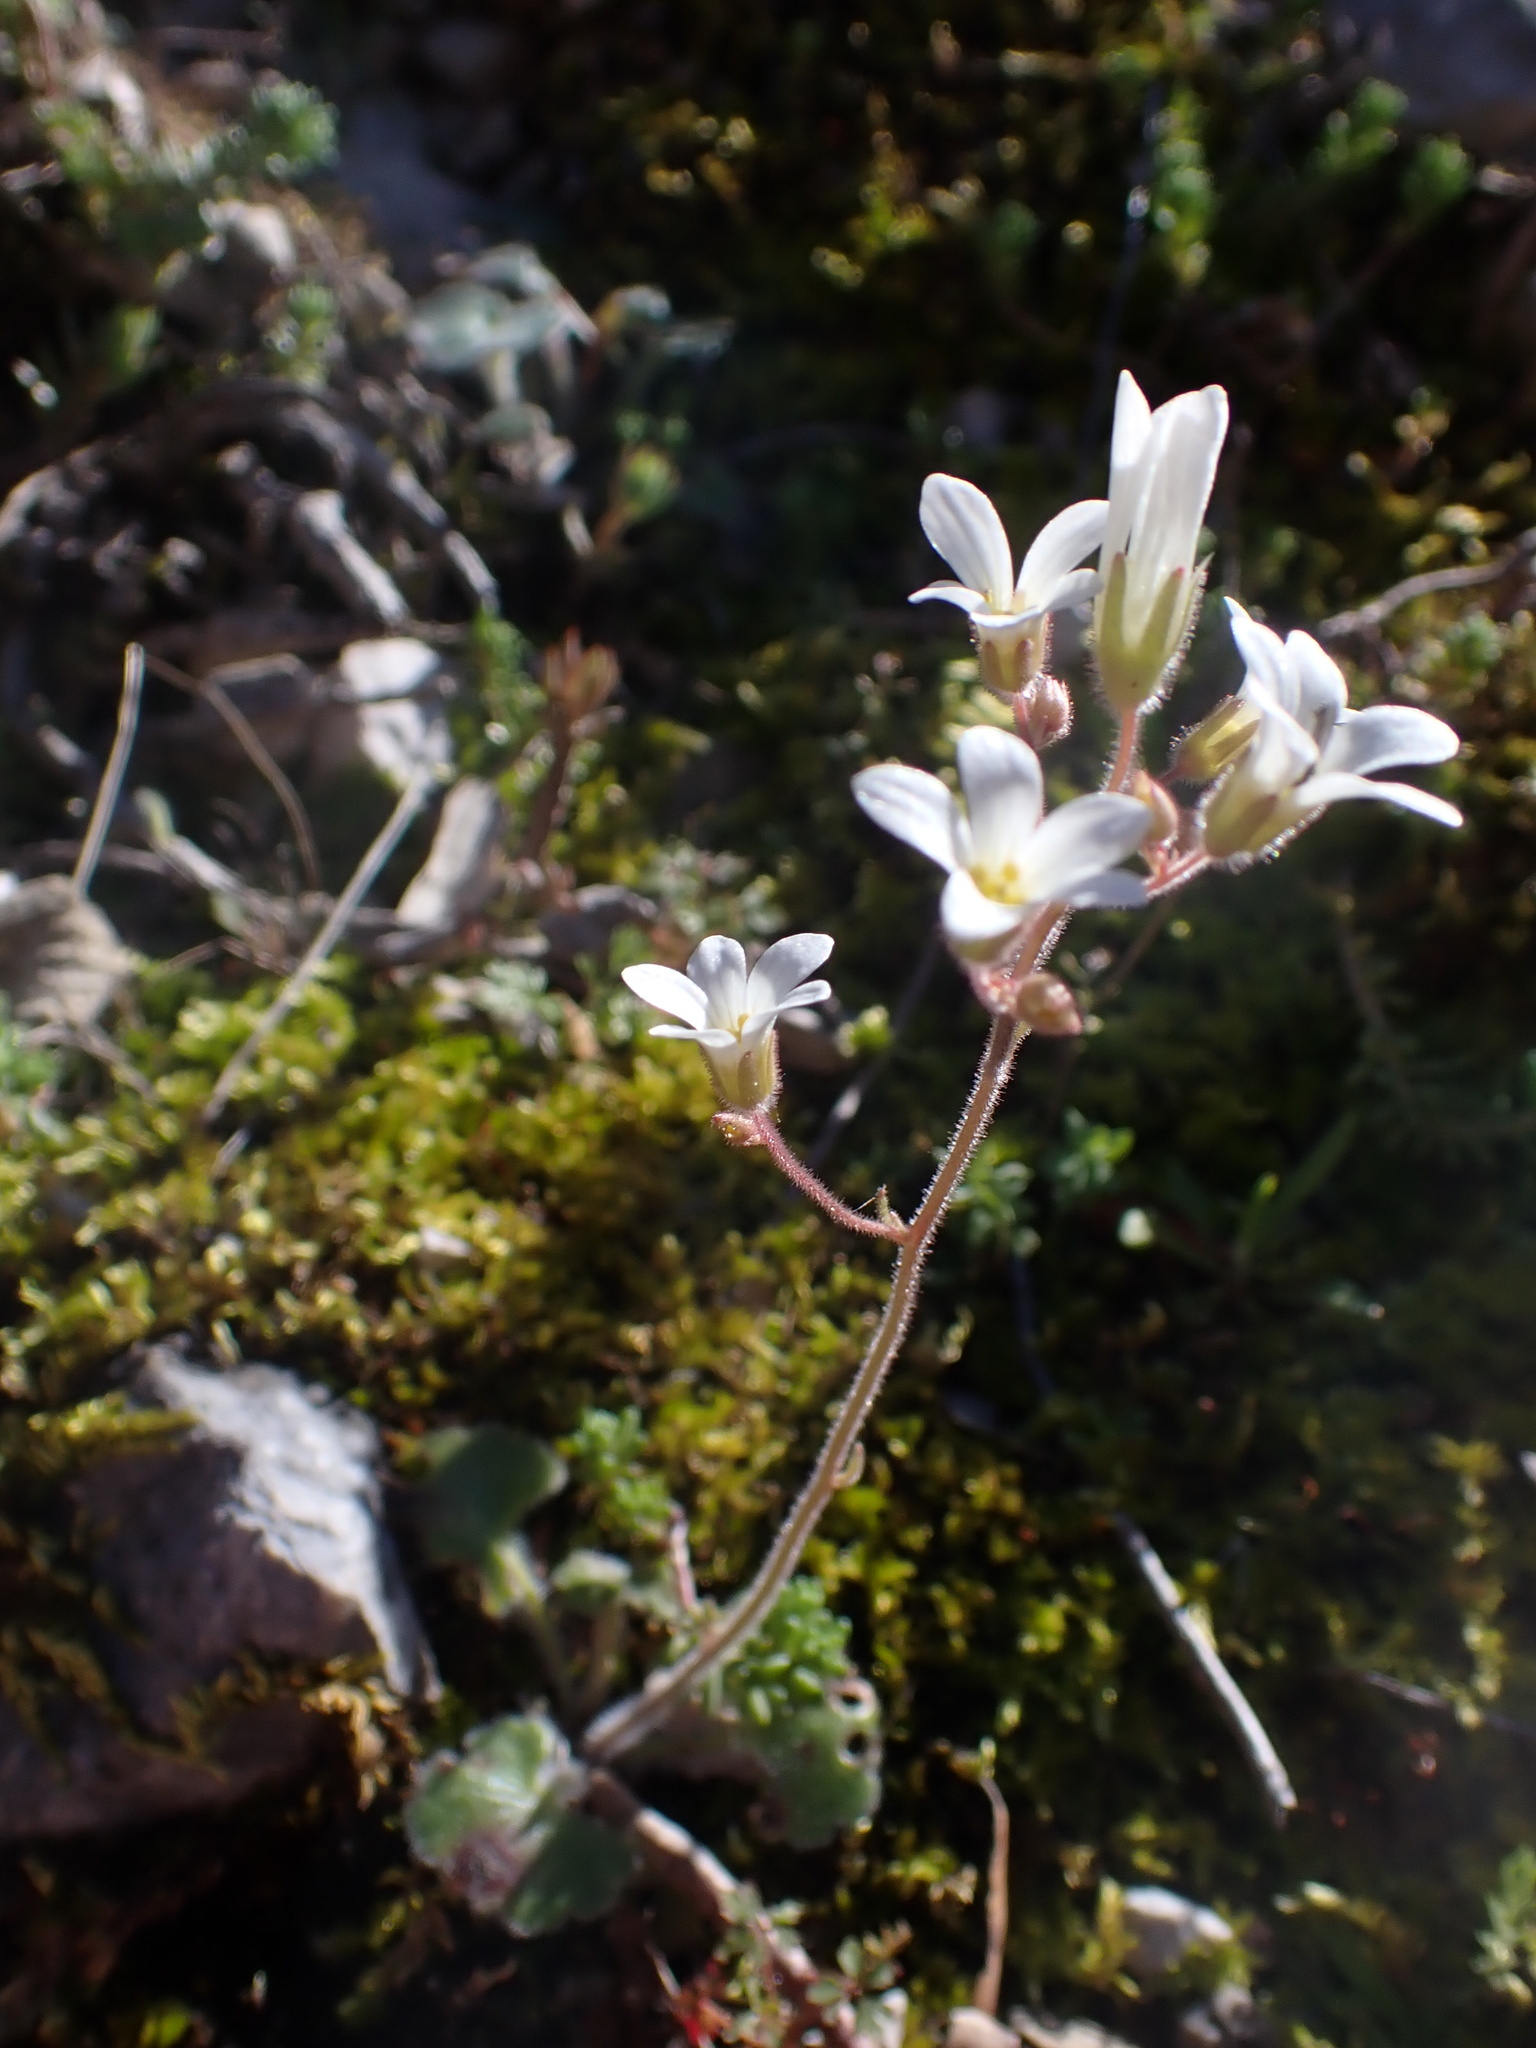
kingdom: Plantae
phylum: Tracheophyta
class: Magnoliopsida
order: Saxifragales
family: Saxifragaceae
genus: Saxifraga
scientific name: Saxifraga granulata
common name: Meadow saxifrage
